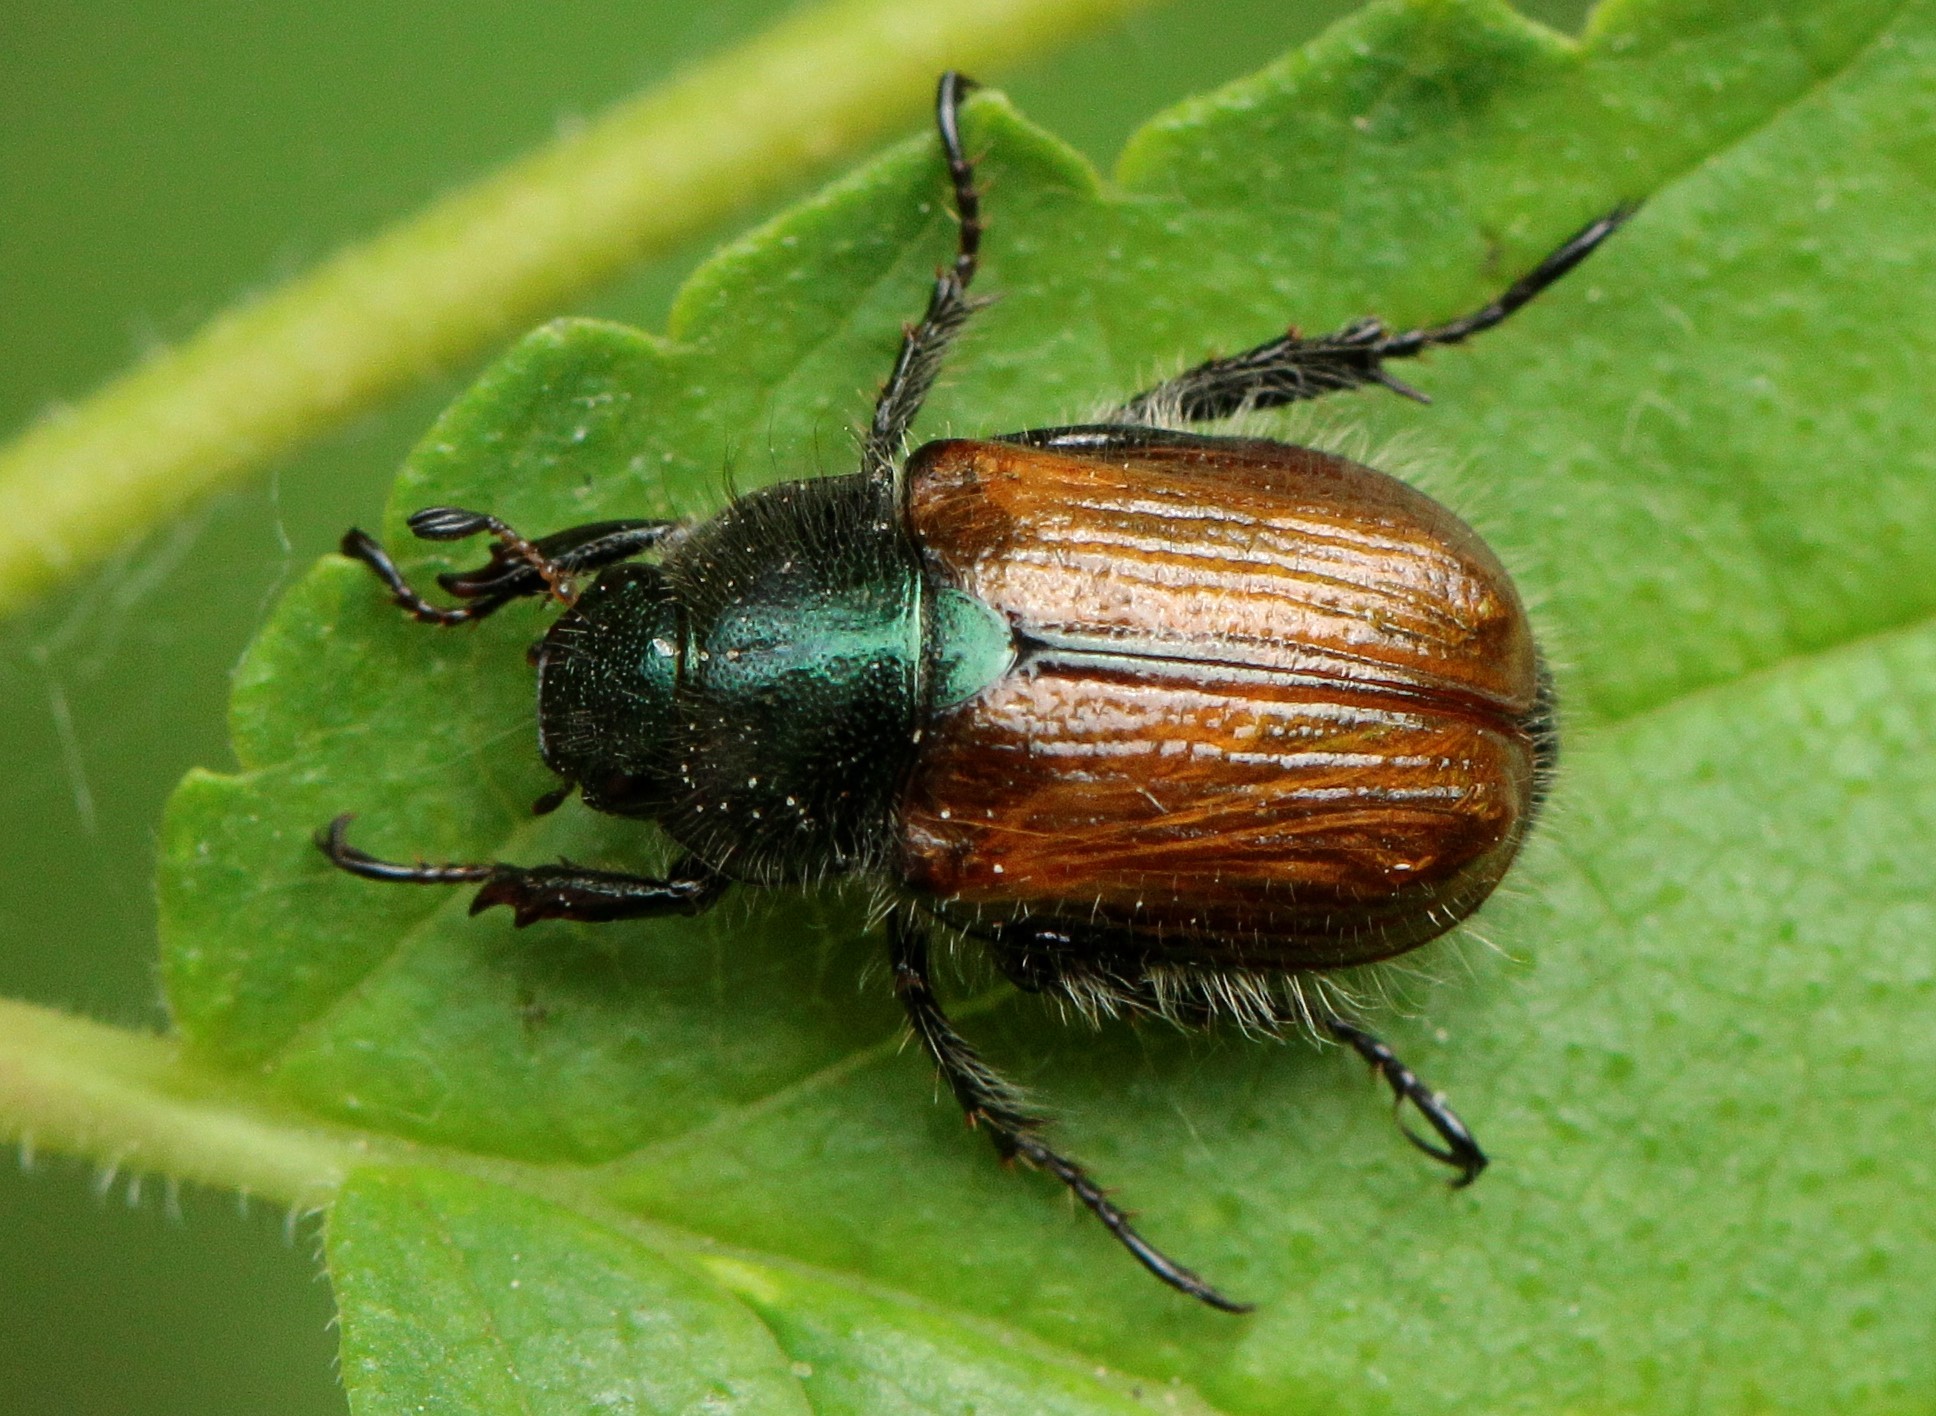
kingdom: Animalia
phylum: Arthropoda
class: Insecta
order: Coleoptera
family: Scarabaeidae
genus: Phyllopertha
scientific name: Phyllopertha horticola
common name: Garden chafer
